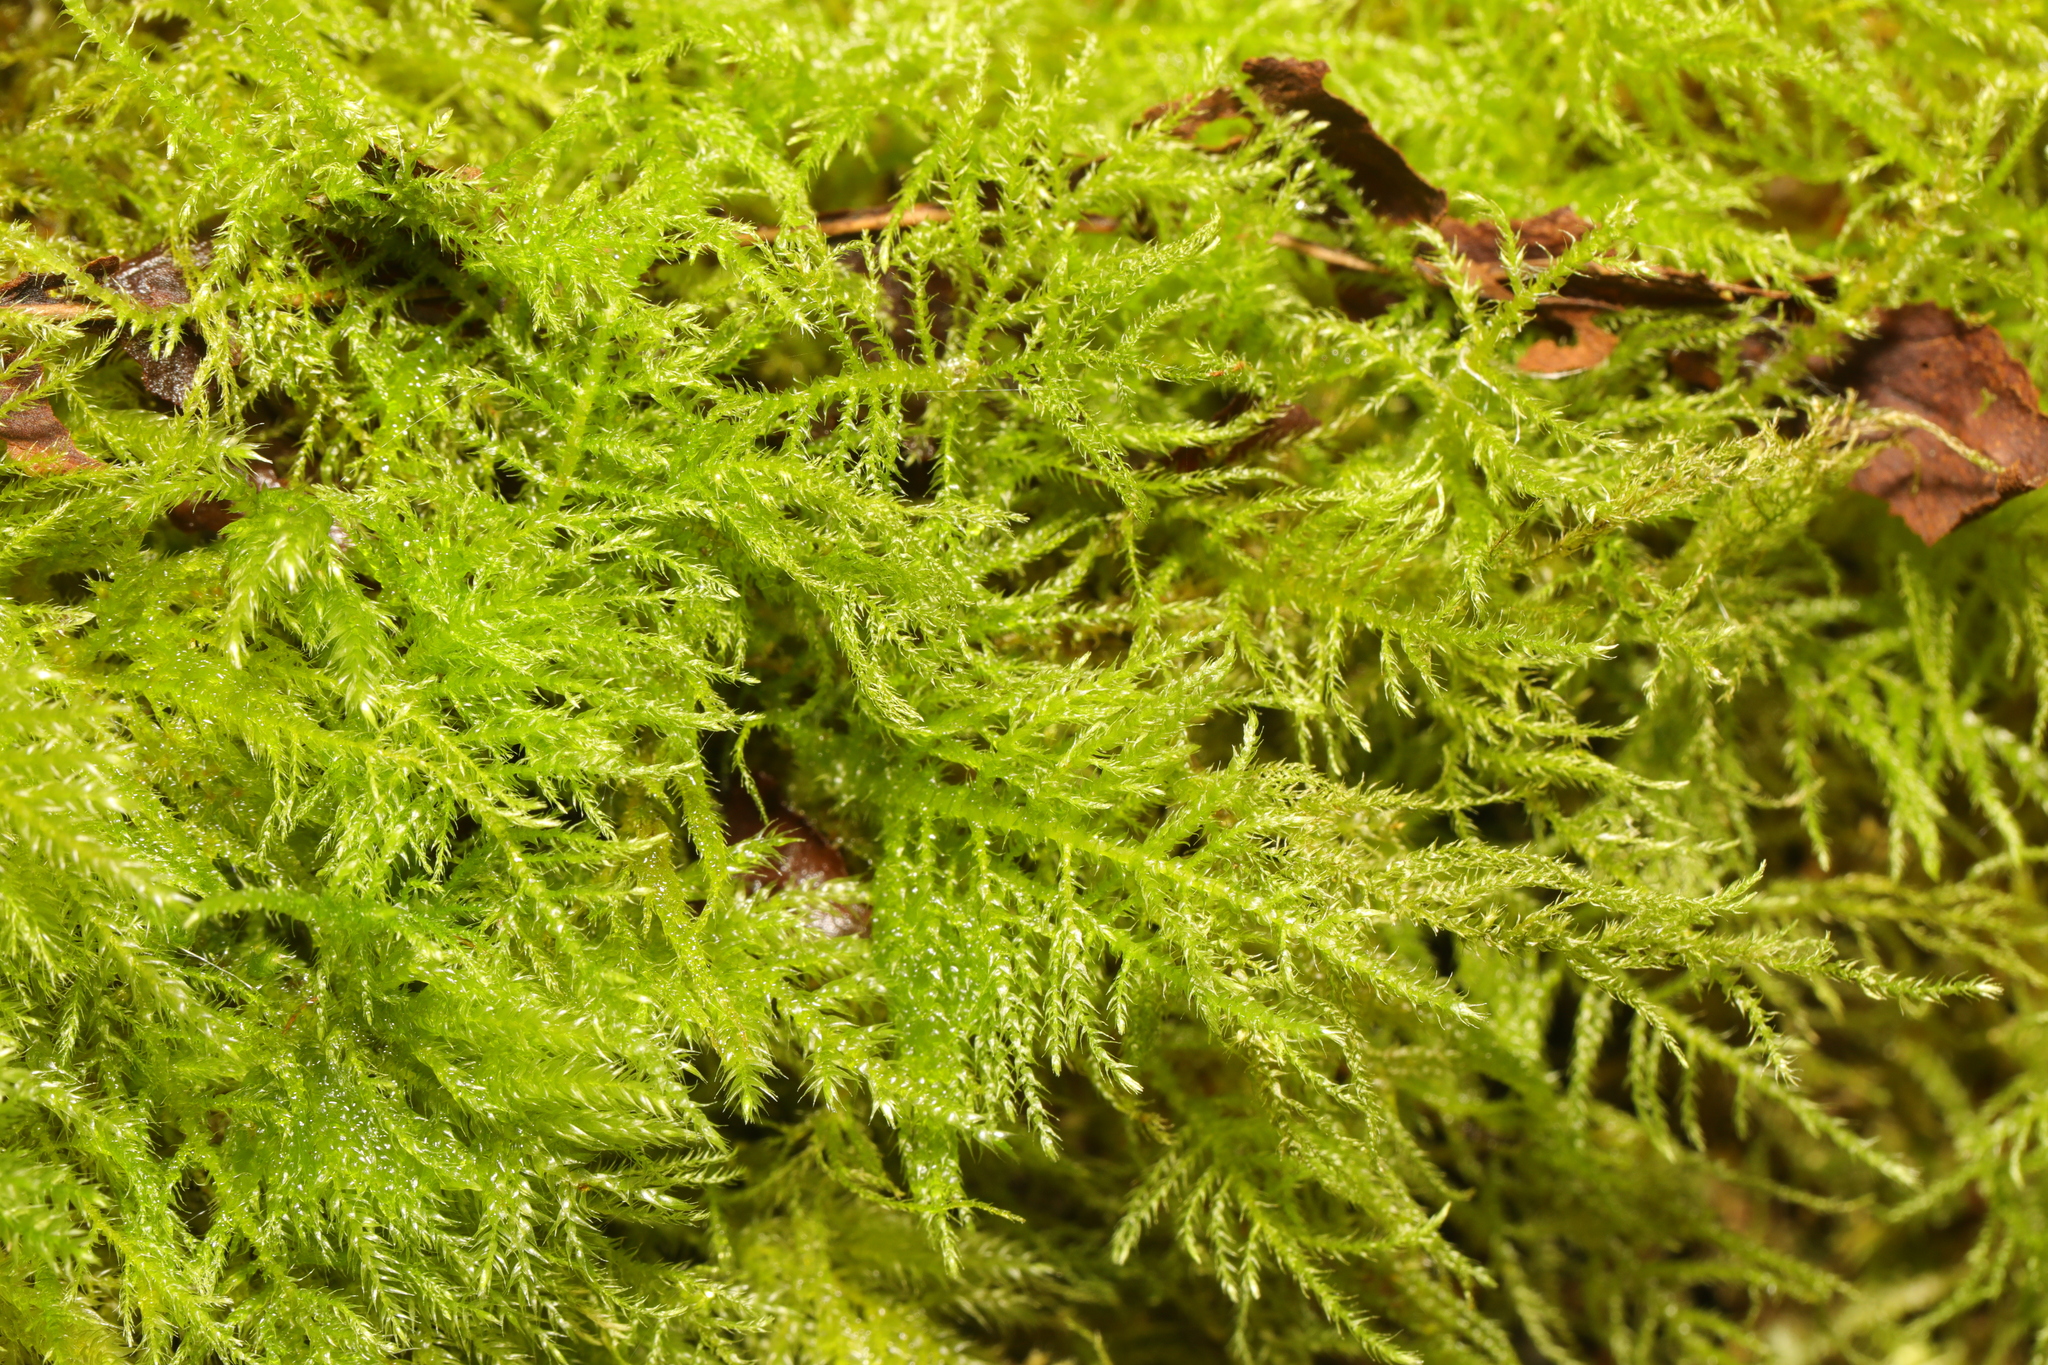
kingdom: Plantae
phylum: Bryophyta
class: Bryopsida
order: Hypnales
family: Brachytheciaceae
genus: Kindbergia
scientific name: Kindbergia praelonga
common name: Slender beaked moss
